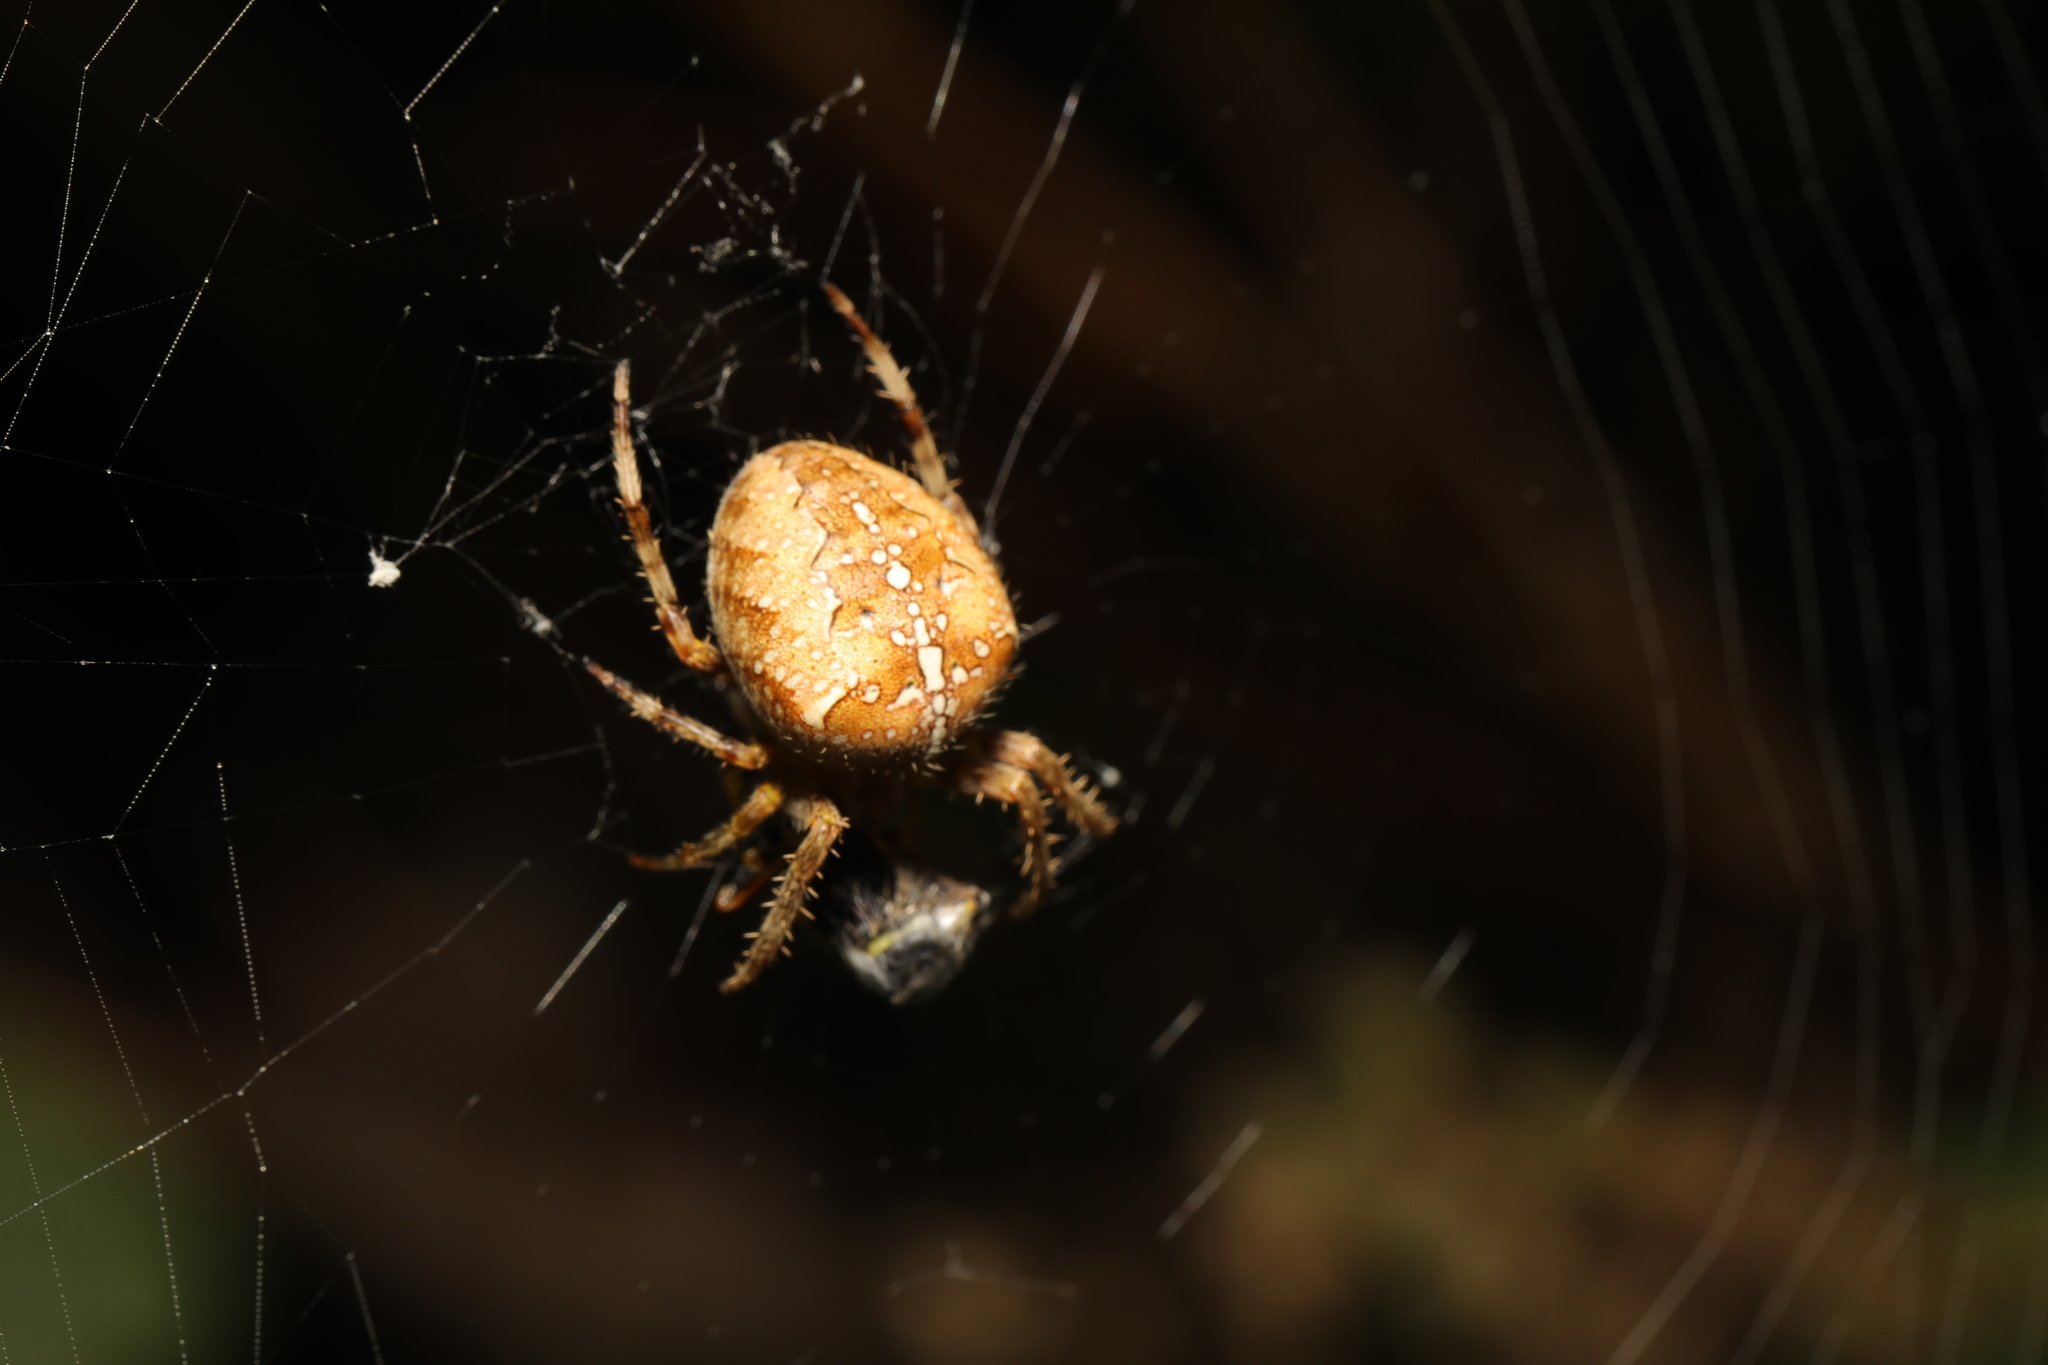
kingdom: Animalia
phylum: Arthropoda
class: Arachnida
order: Araneae
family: Araneidae
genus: Araneus
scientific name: Araneus diadematus
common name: Cross orbweaver
